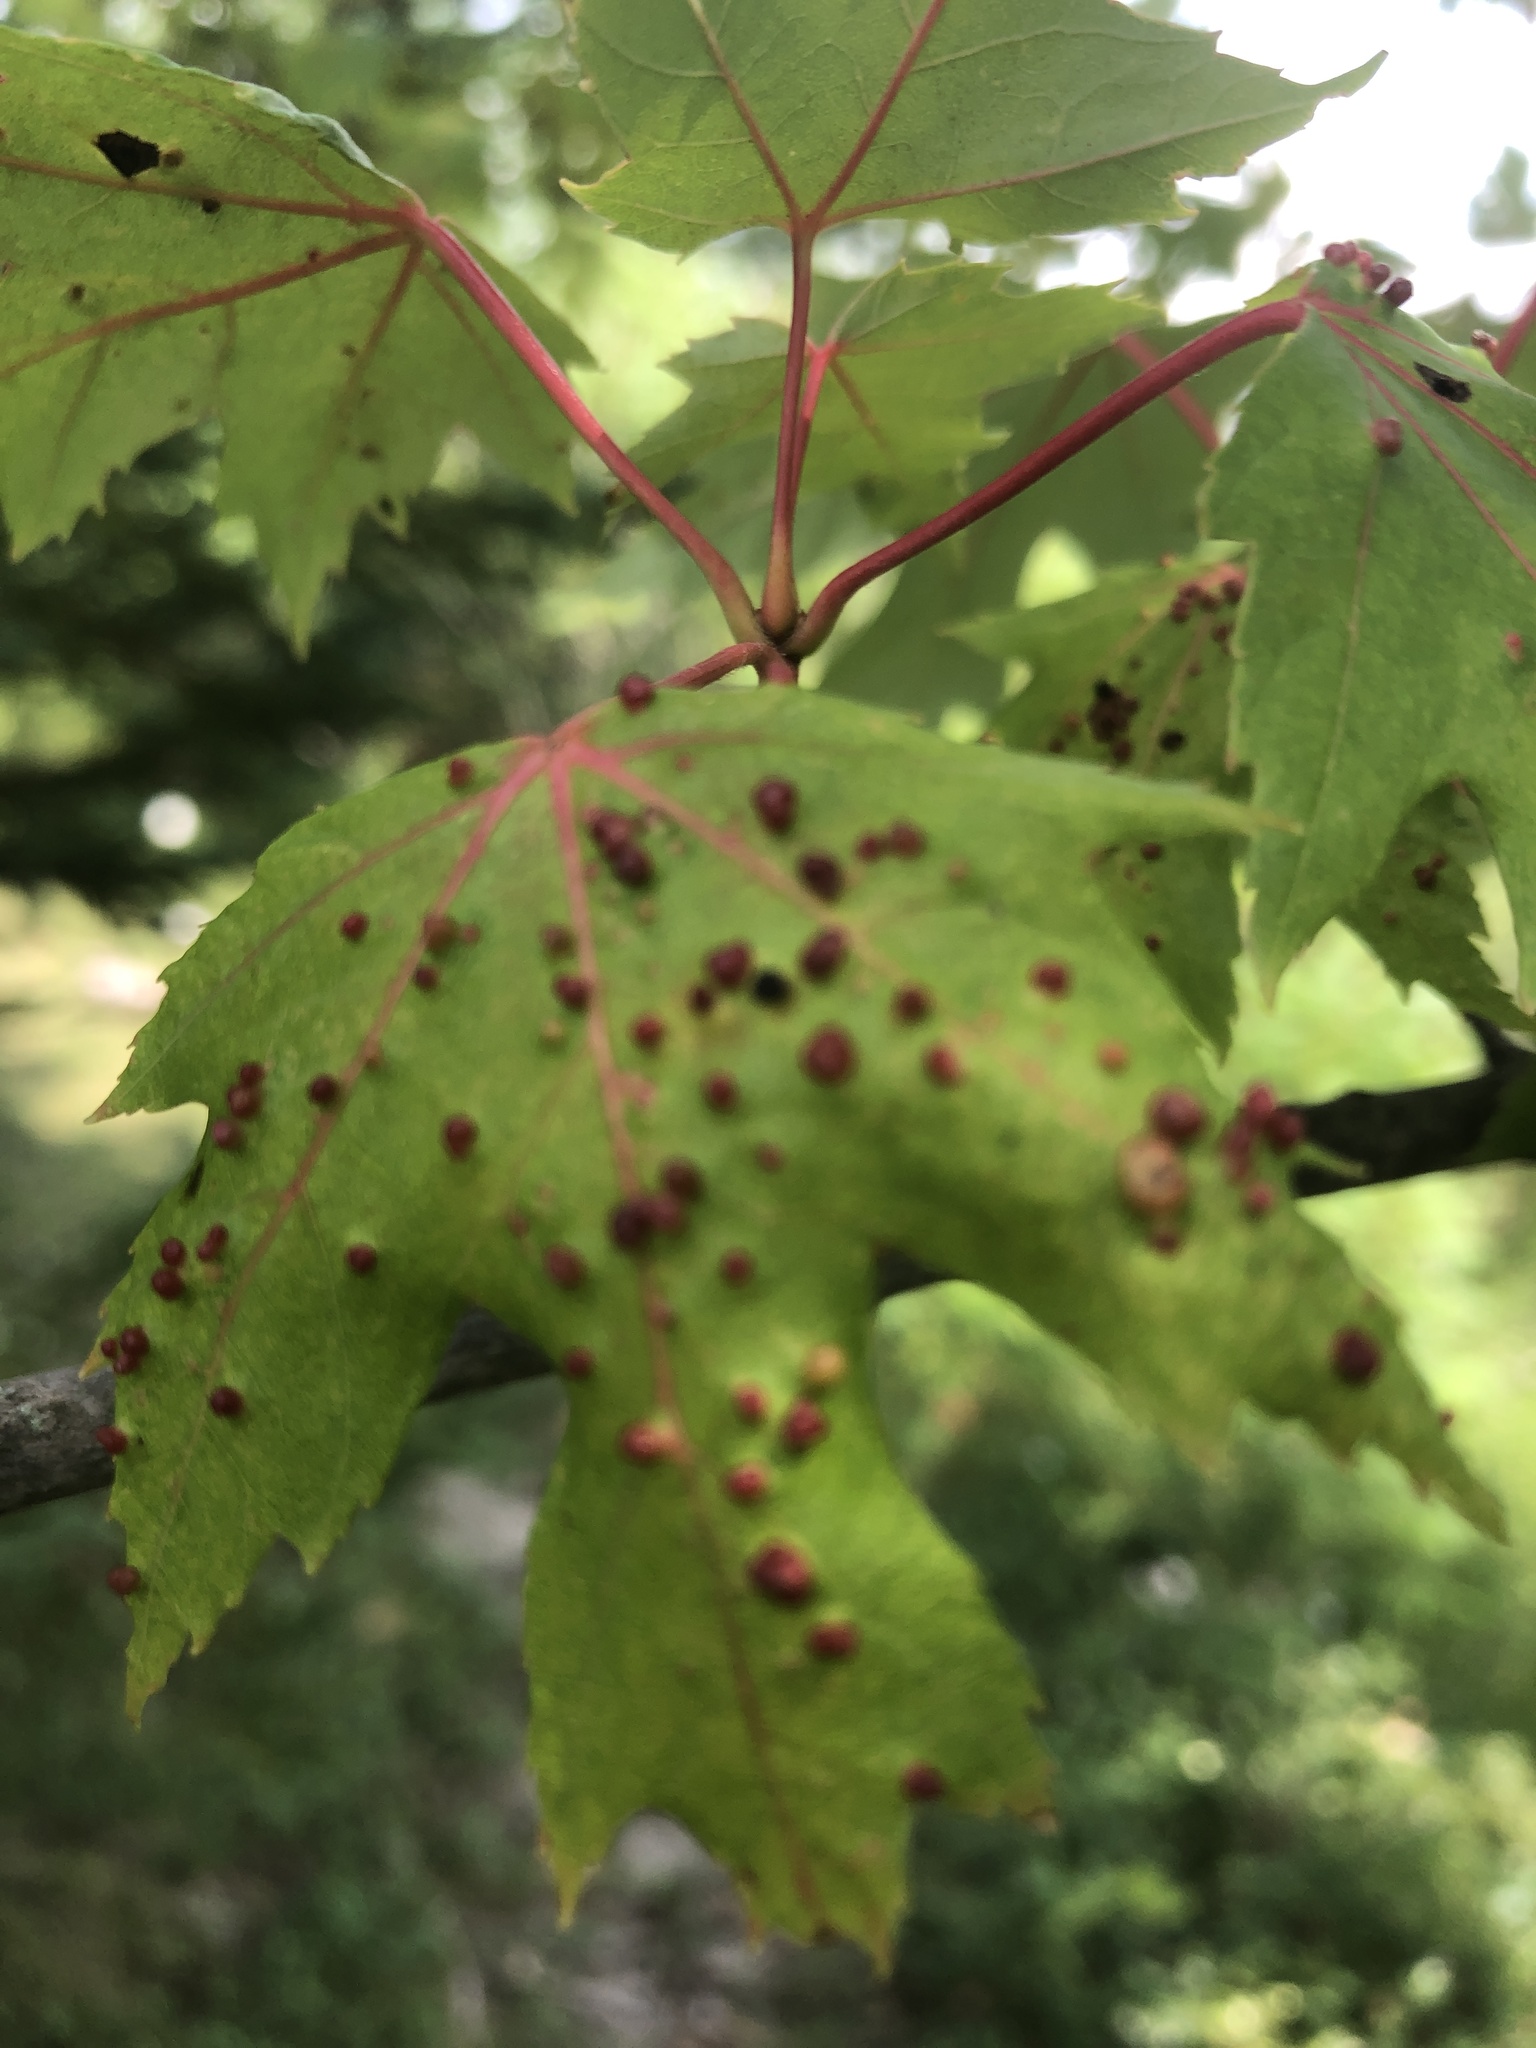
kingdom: Animalia
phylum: Arthropoda
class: Arachnida
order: Trombidiformes
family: Eriophyidae
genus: Vasates
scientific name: Vasates quadripedes
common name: Maple bladder gall mite
